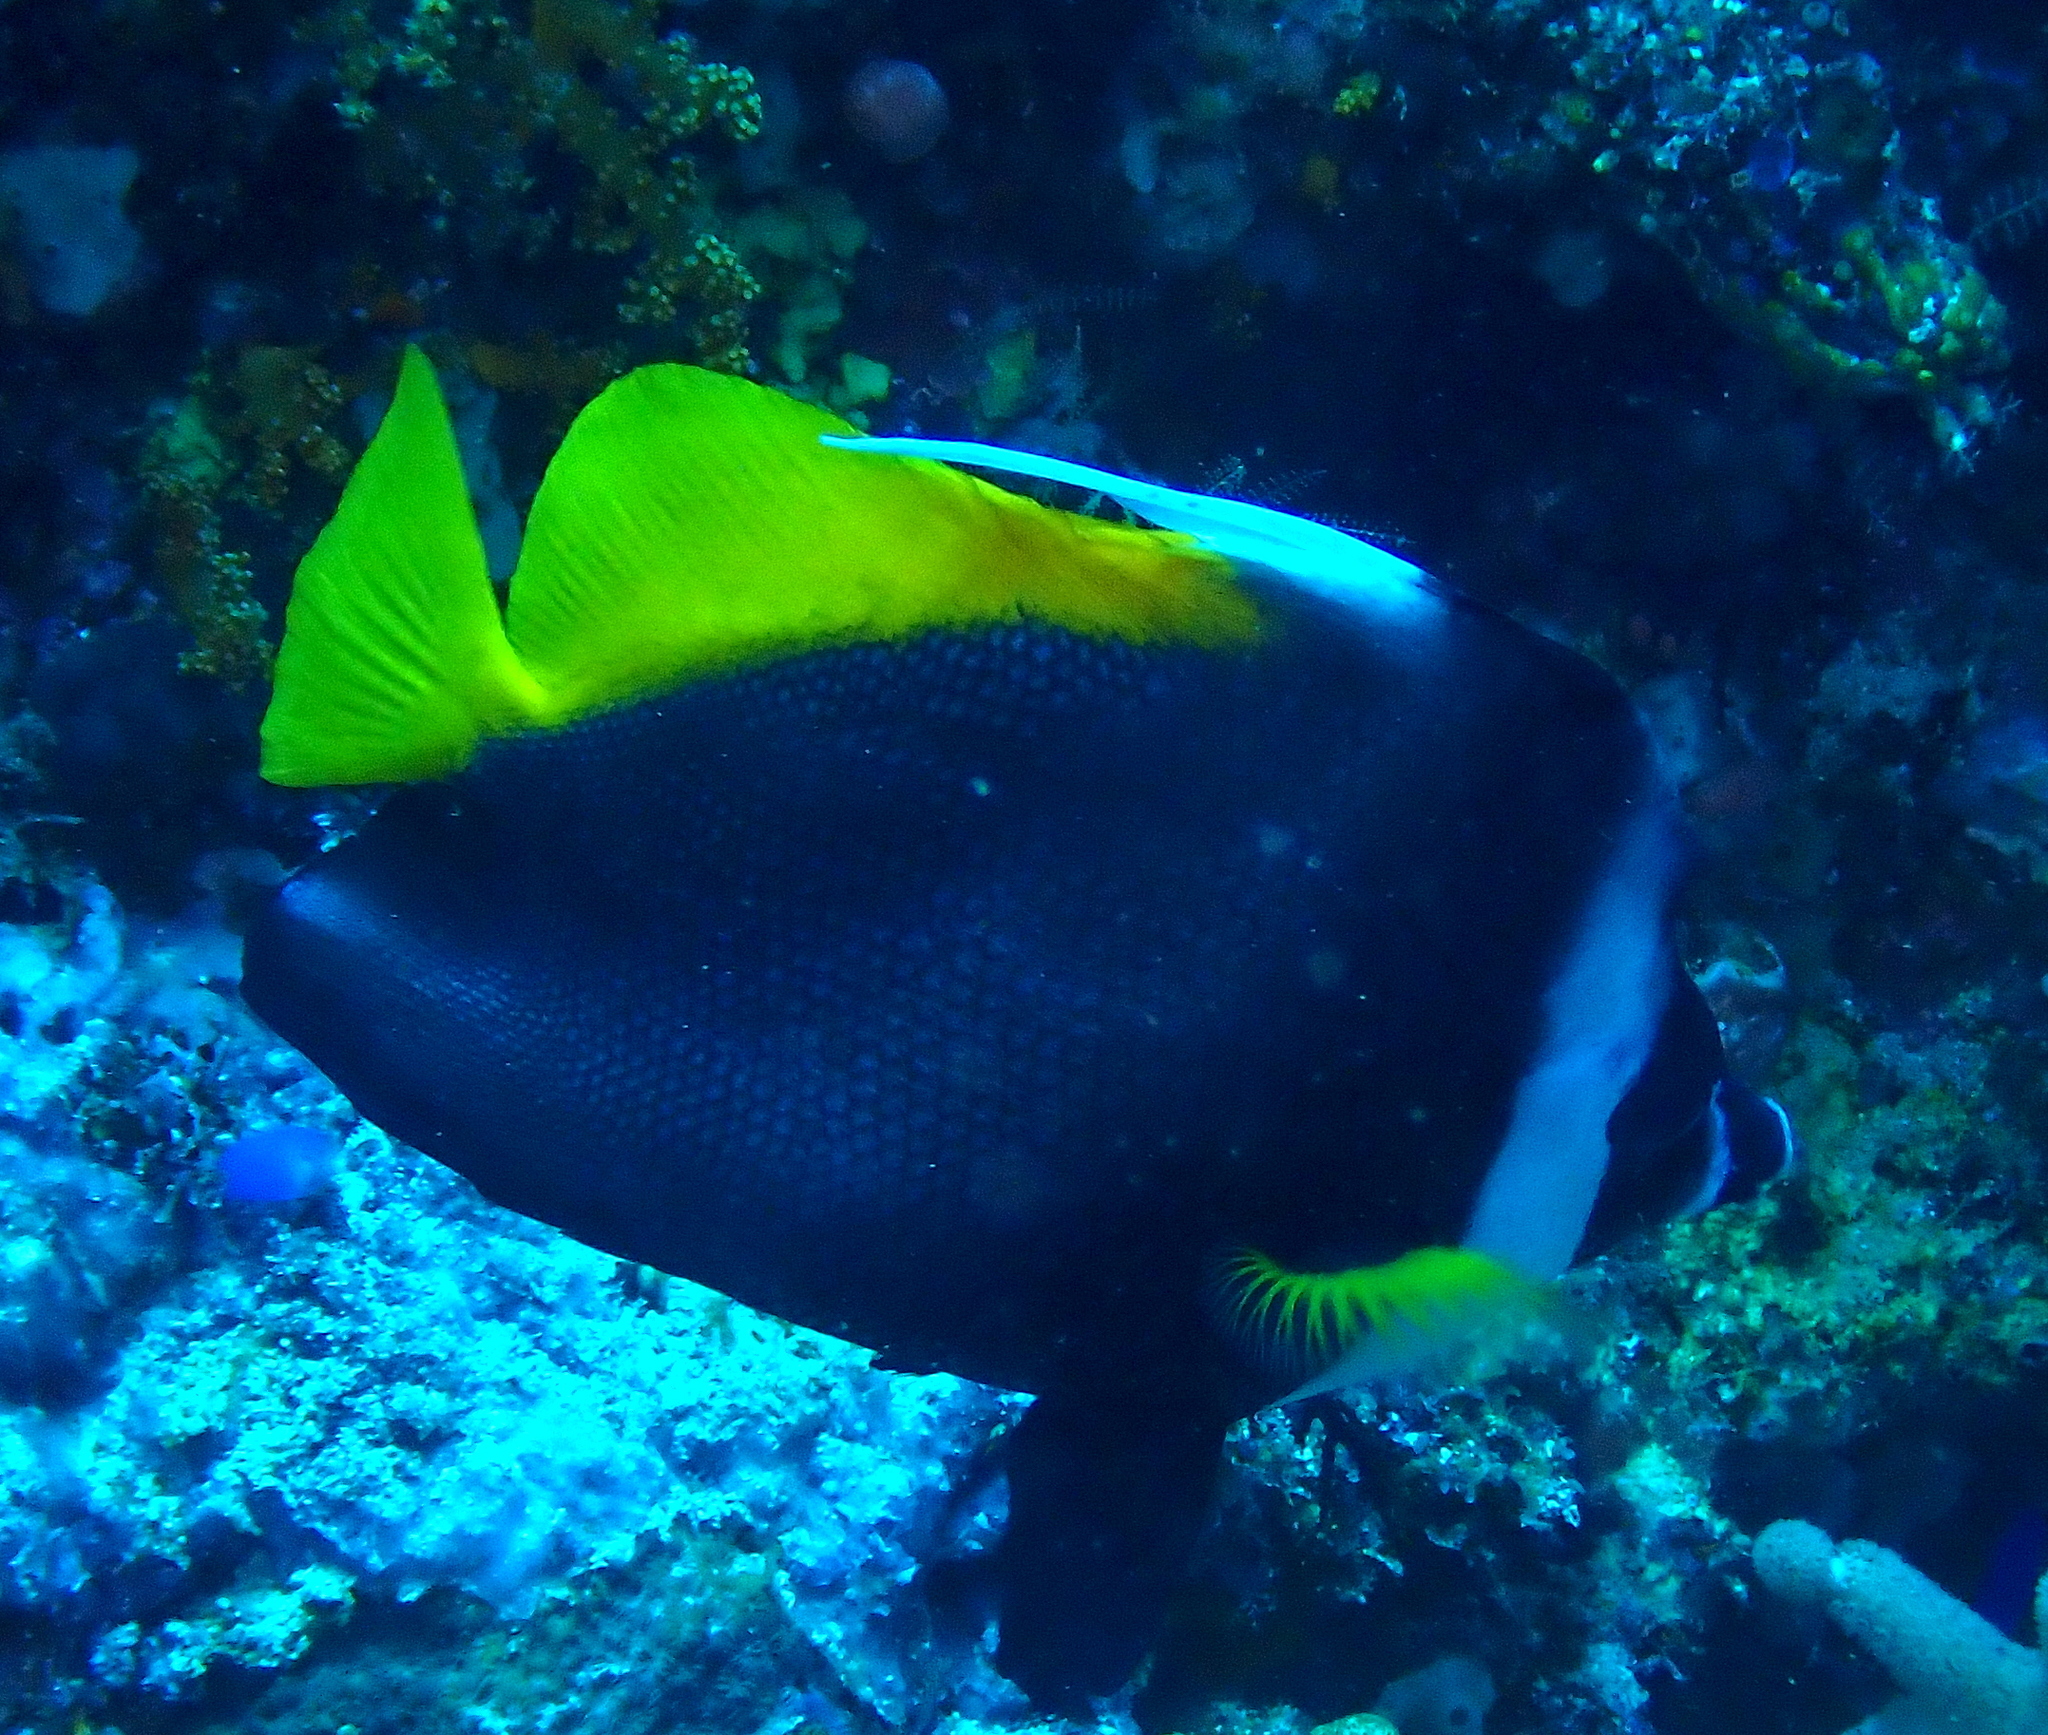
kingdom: Animalia
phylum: Chordata
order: Perciformes
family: Chaetodontidae
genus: Heniochus
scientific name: Heniochus singularius
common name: Singular bannerfish
